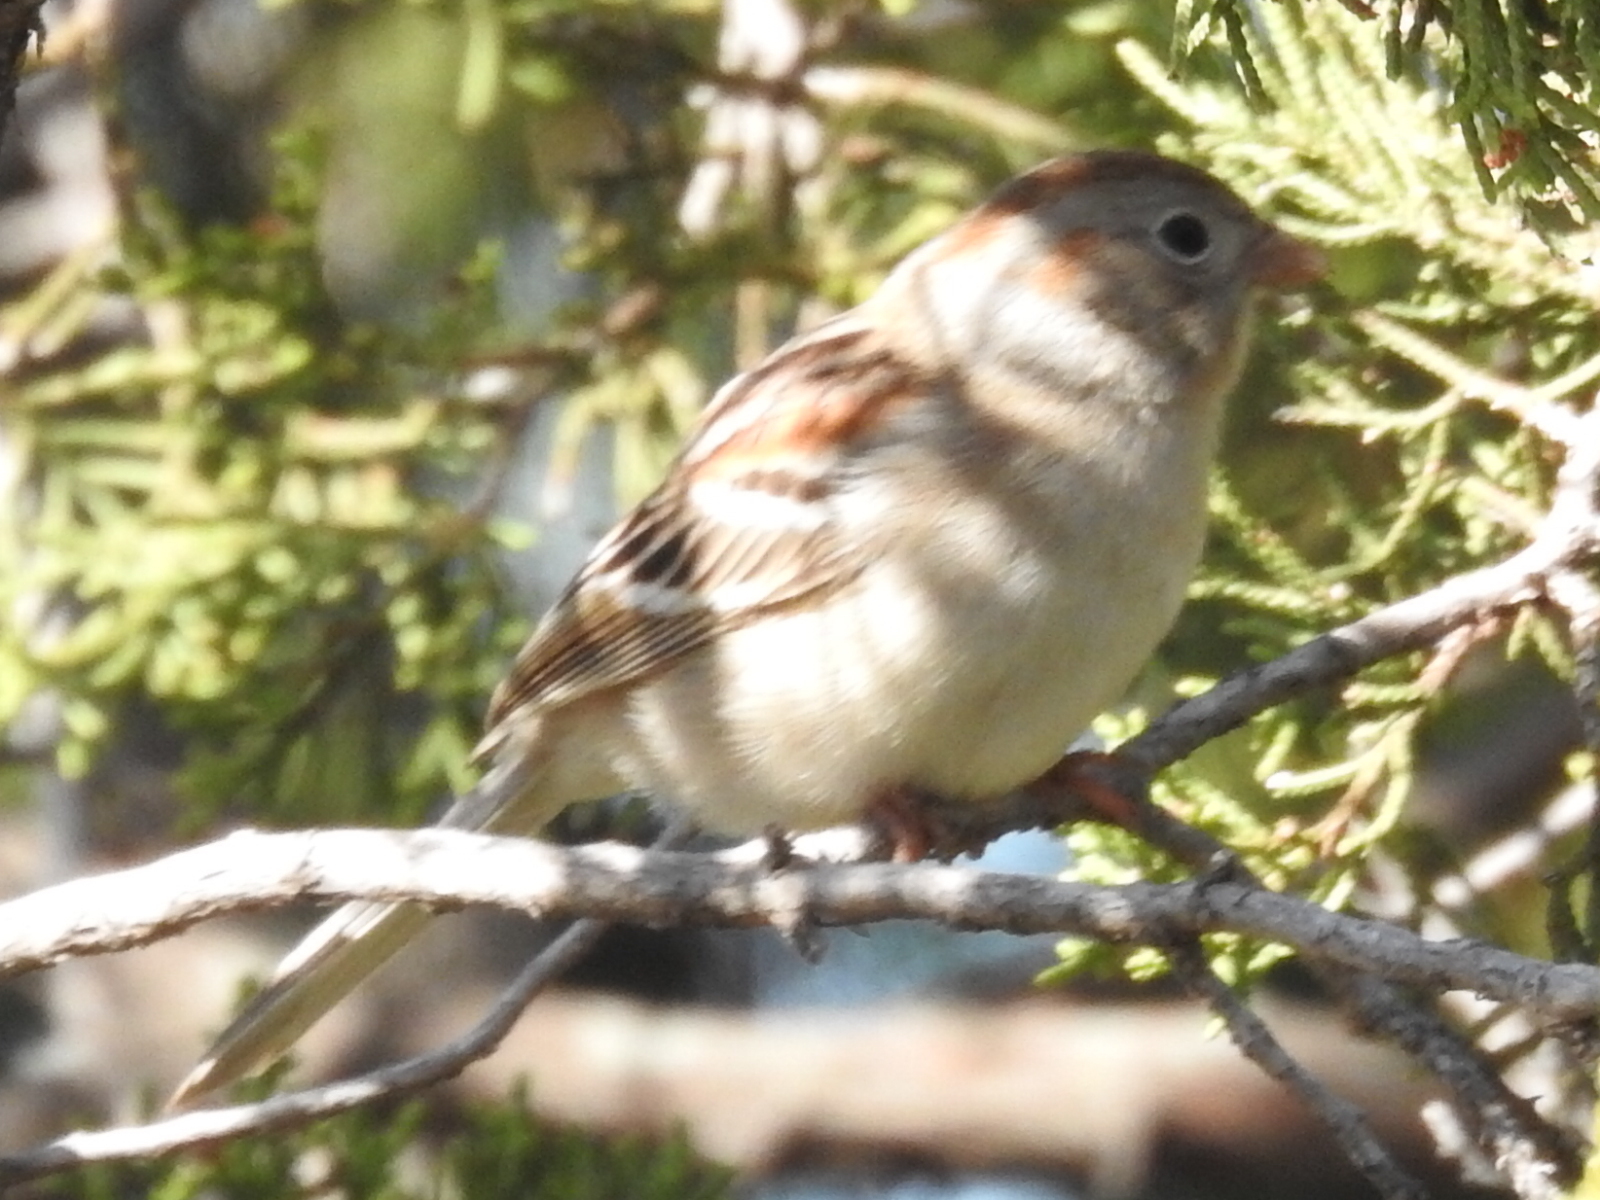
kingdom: Animalia
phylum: Chordata
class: Aves
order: Passeriformes
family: Passerellidae
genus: Spizella
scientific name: Spizella pusilla
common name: Field sparrow
